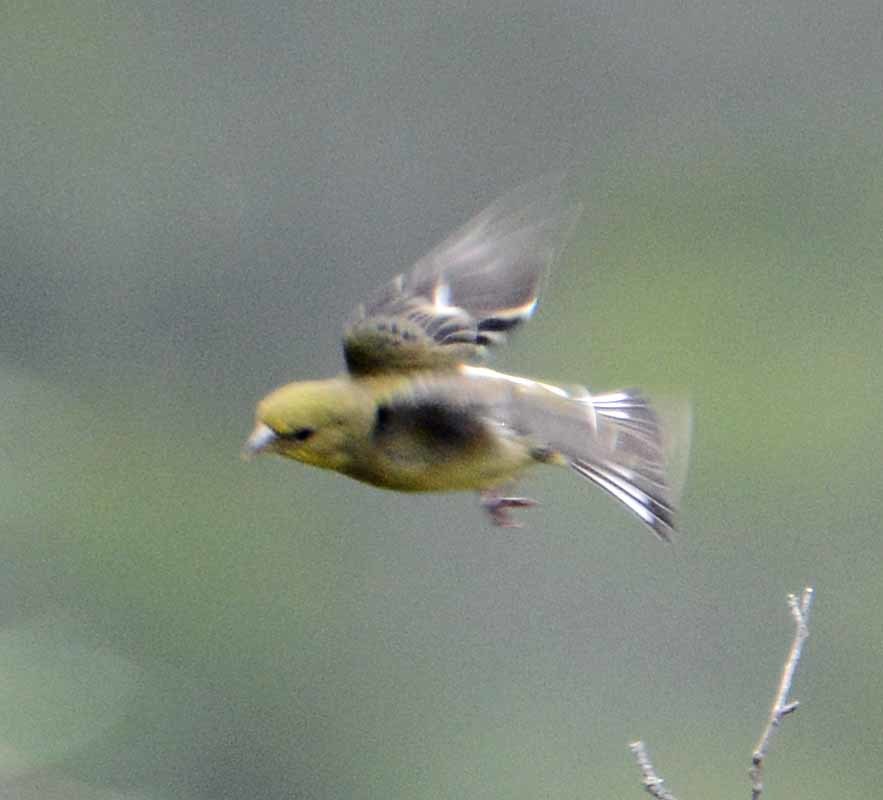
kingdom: Animalia
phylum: Chordata
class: Aves
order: Passeriformes
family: Fringillidae
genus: Spinus
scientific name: Spinus psaltria
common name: Lesser goldfinch
